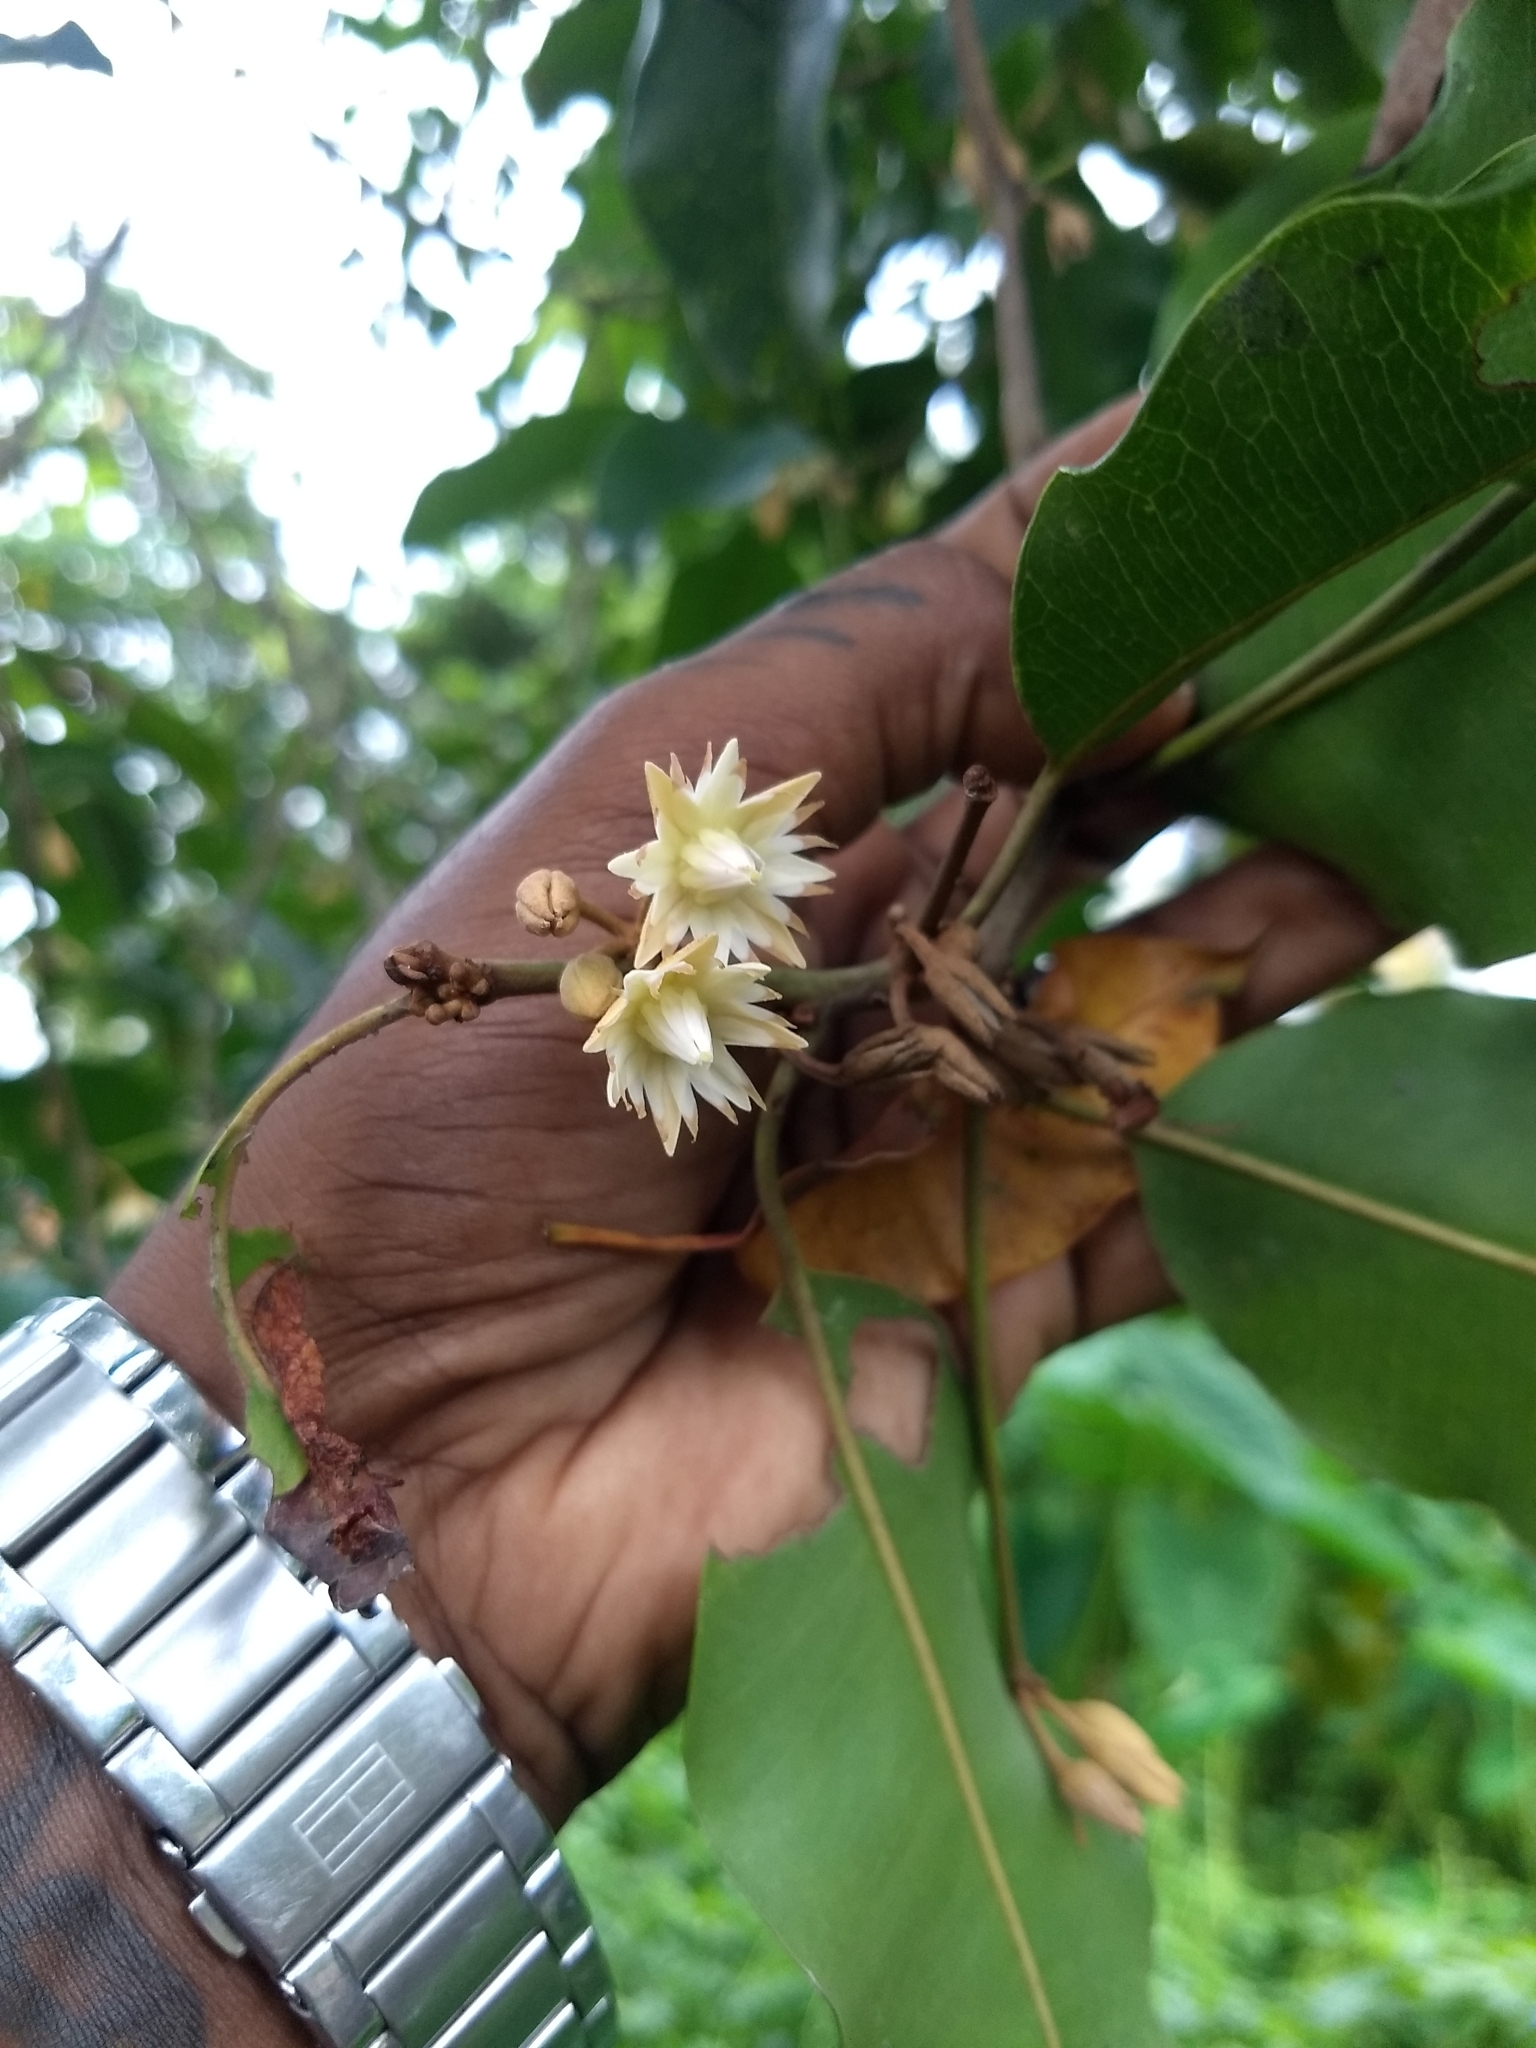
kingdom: Plantae
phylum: Tracheophyta
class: Magnoliopsida
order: Ericales
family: Sapotaceae
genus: Mimusops
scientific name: Mimusops elengi
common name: Spanish cherry
